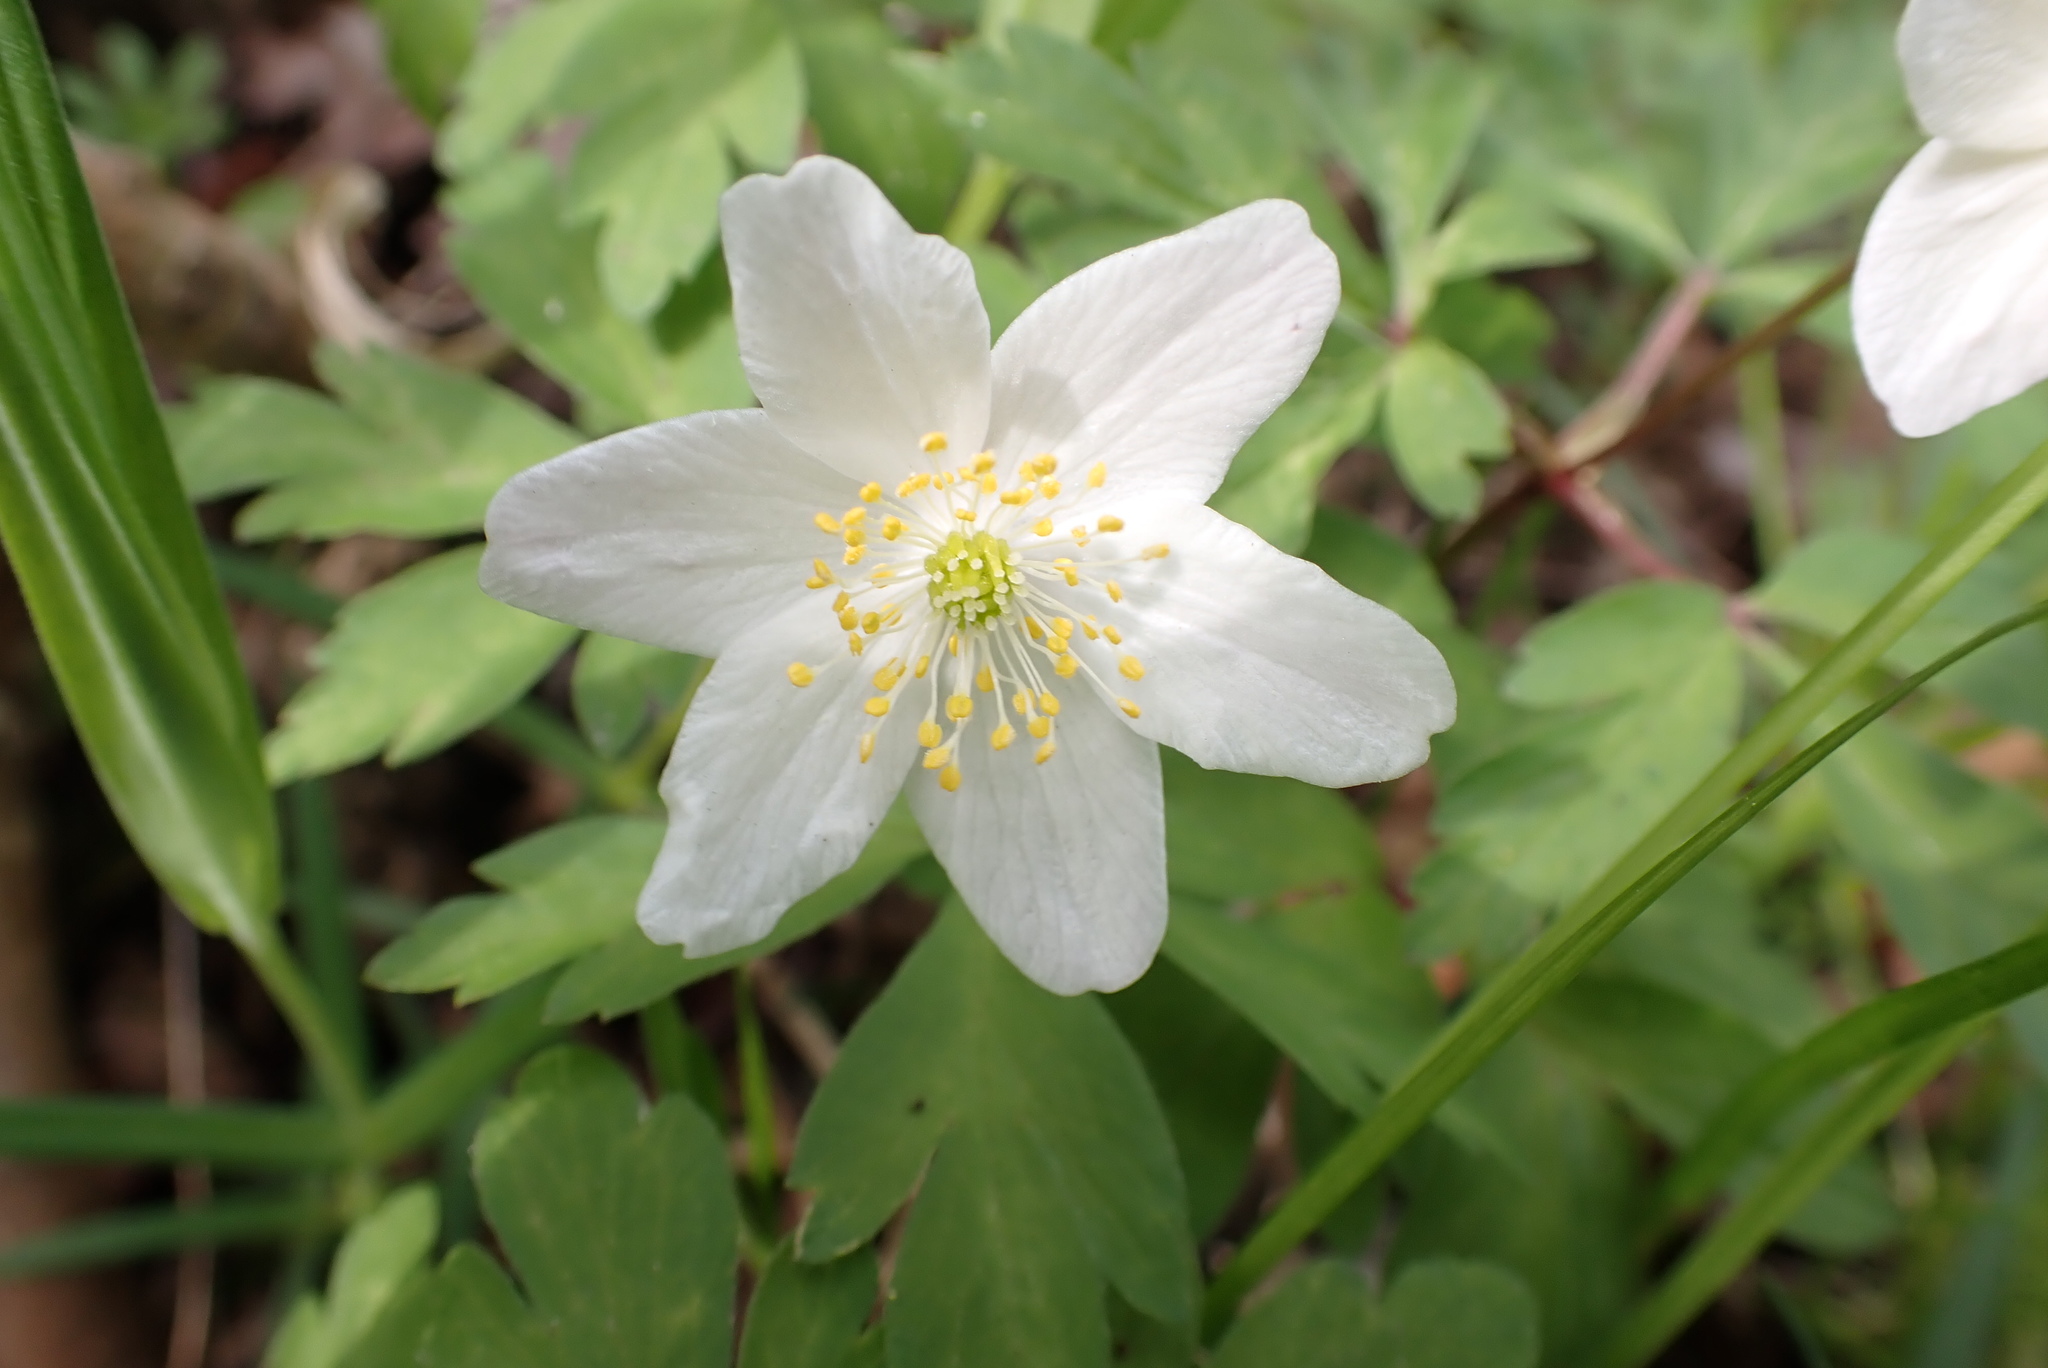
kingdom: Plantae
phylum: Tracheophyta
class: Magnoliopsida
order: Ranunculales
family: Ranunculaceae
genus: Anemone
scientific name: Anemone nemorosa
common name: Wood anemone
